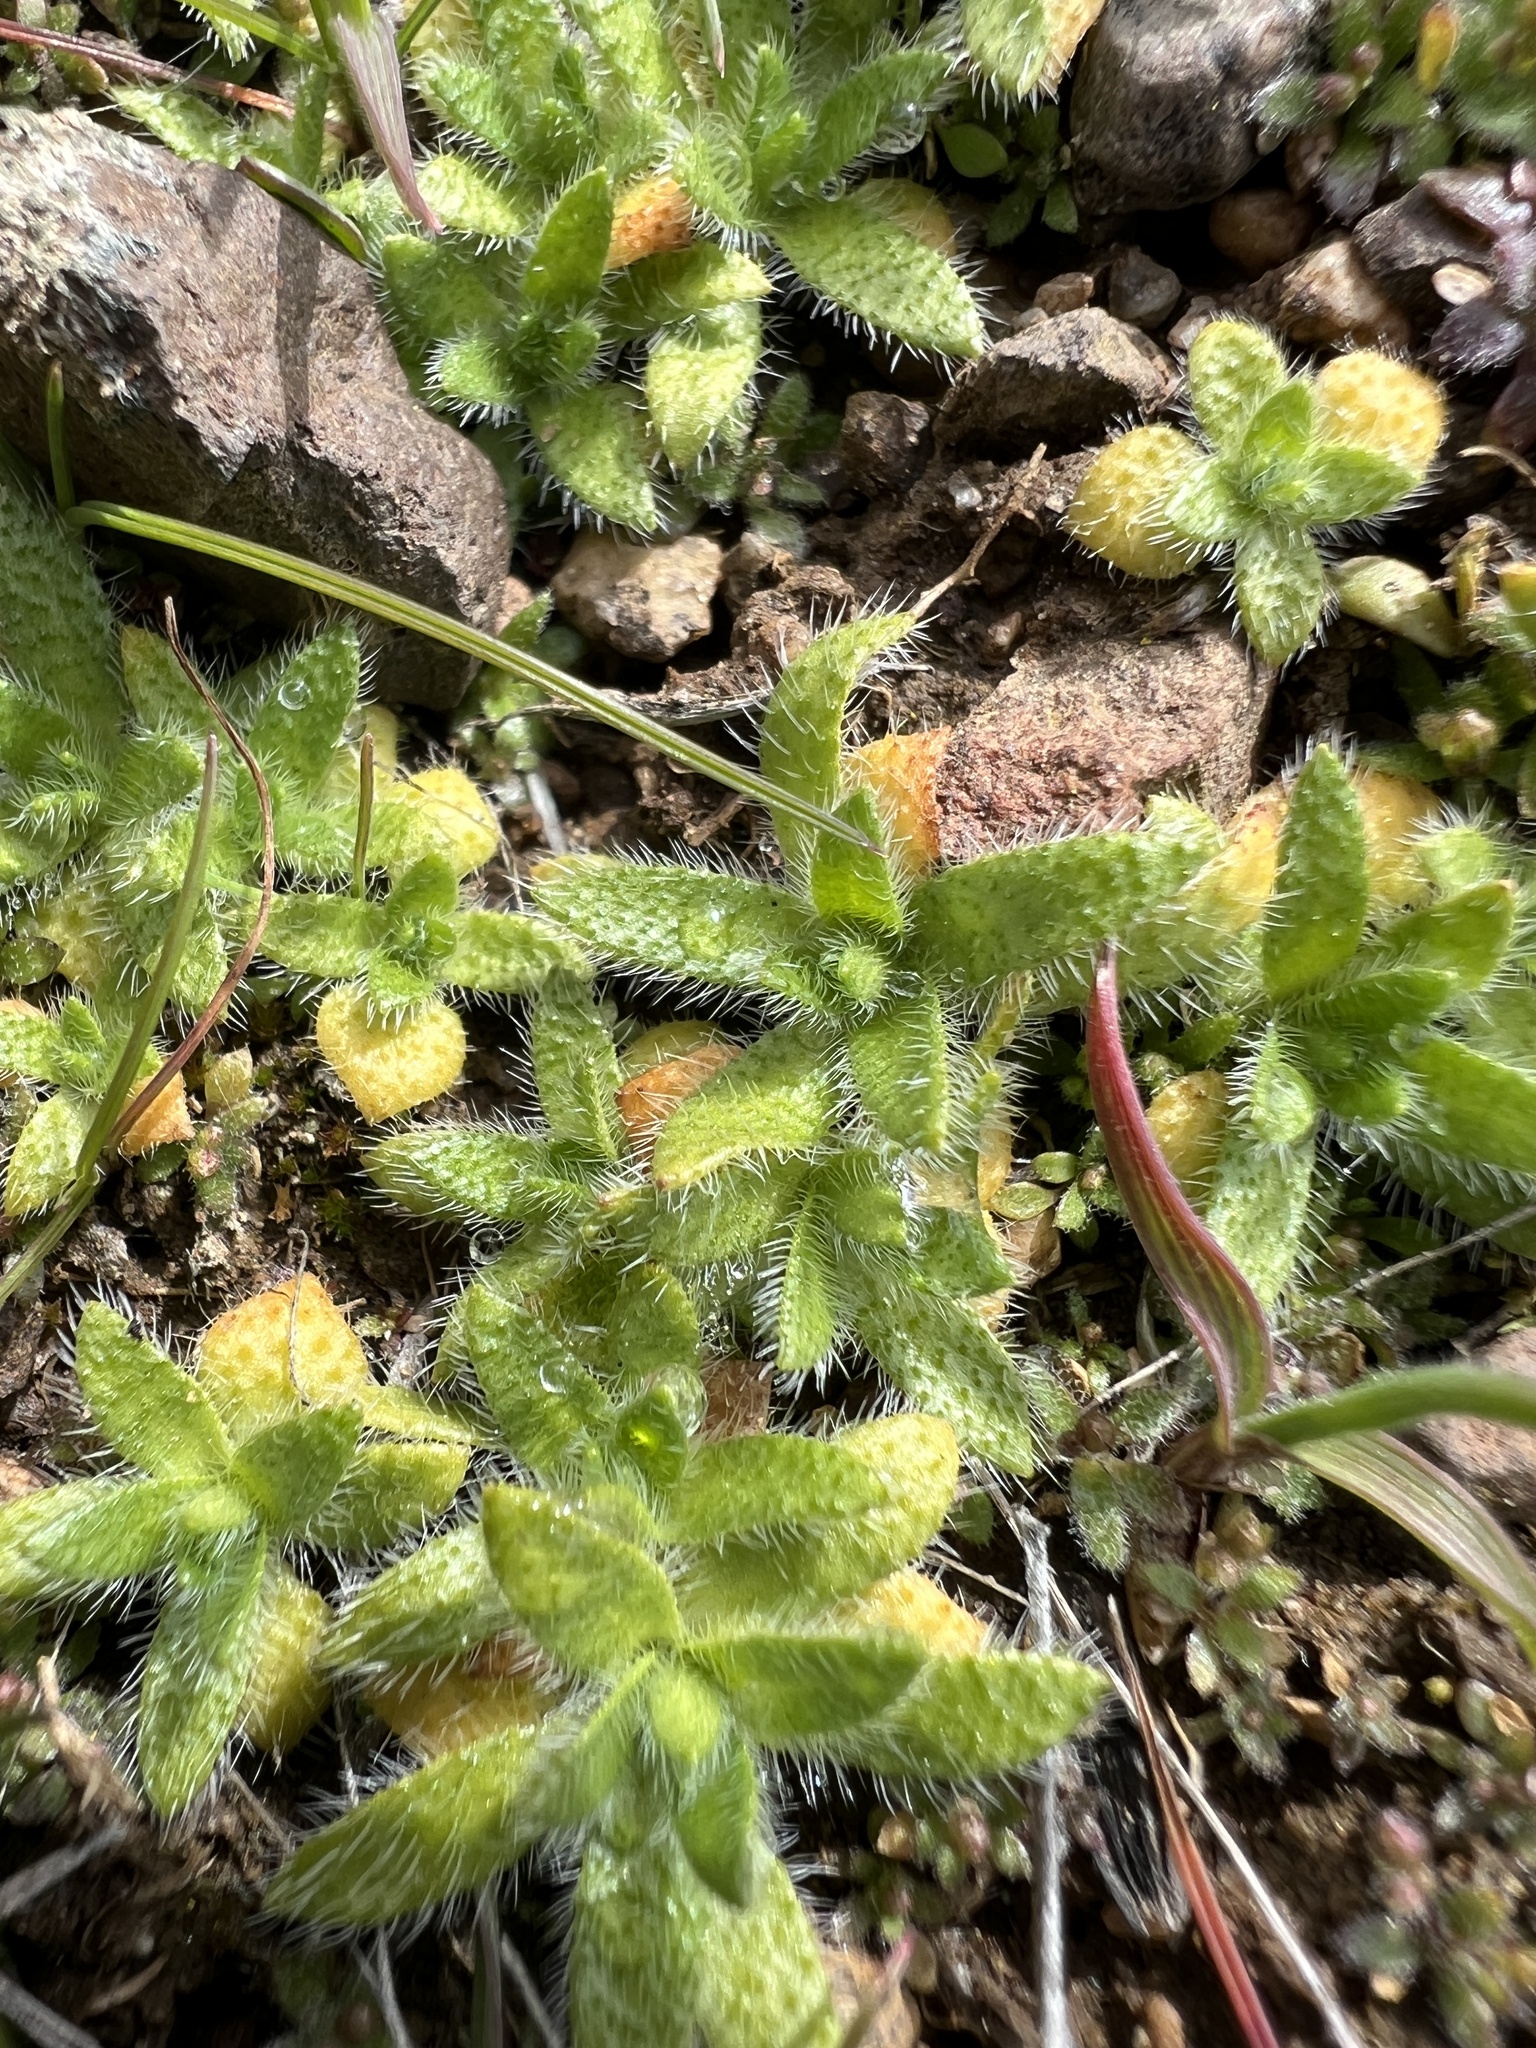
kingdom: Plantae
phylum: Tracheophyta
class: Magnoliopsida
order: Boraginales
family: Boraginaceae
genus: Plagiobothrys
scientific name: Plagiobothrys tenellus
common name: Pacific popcornflower
